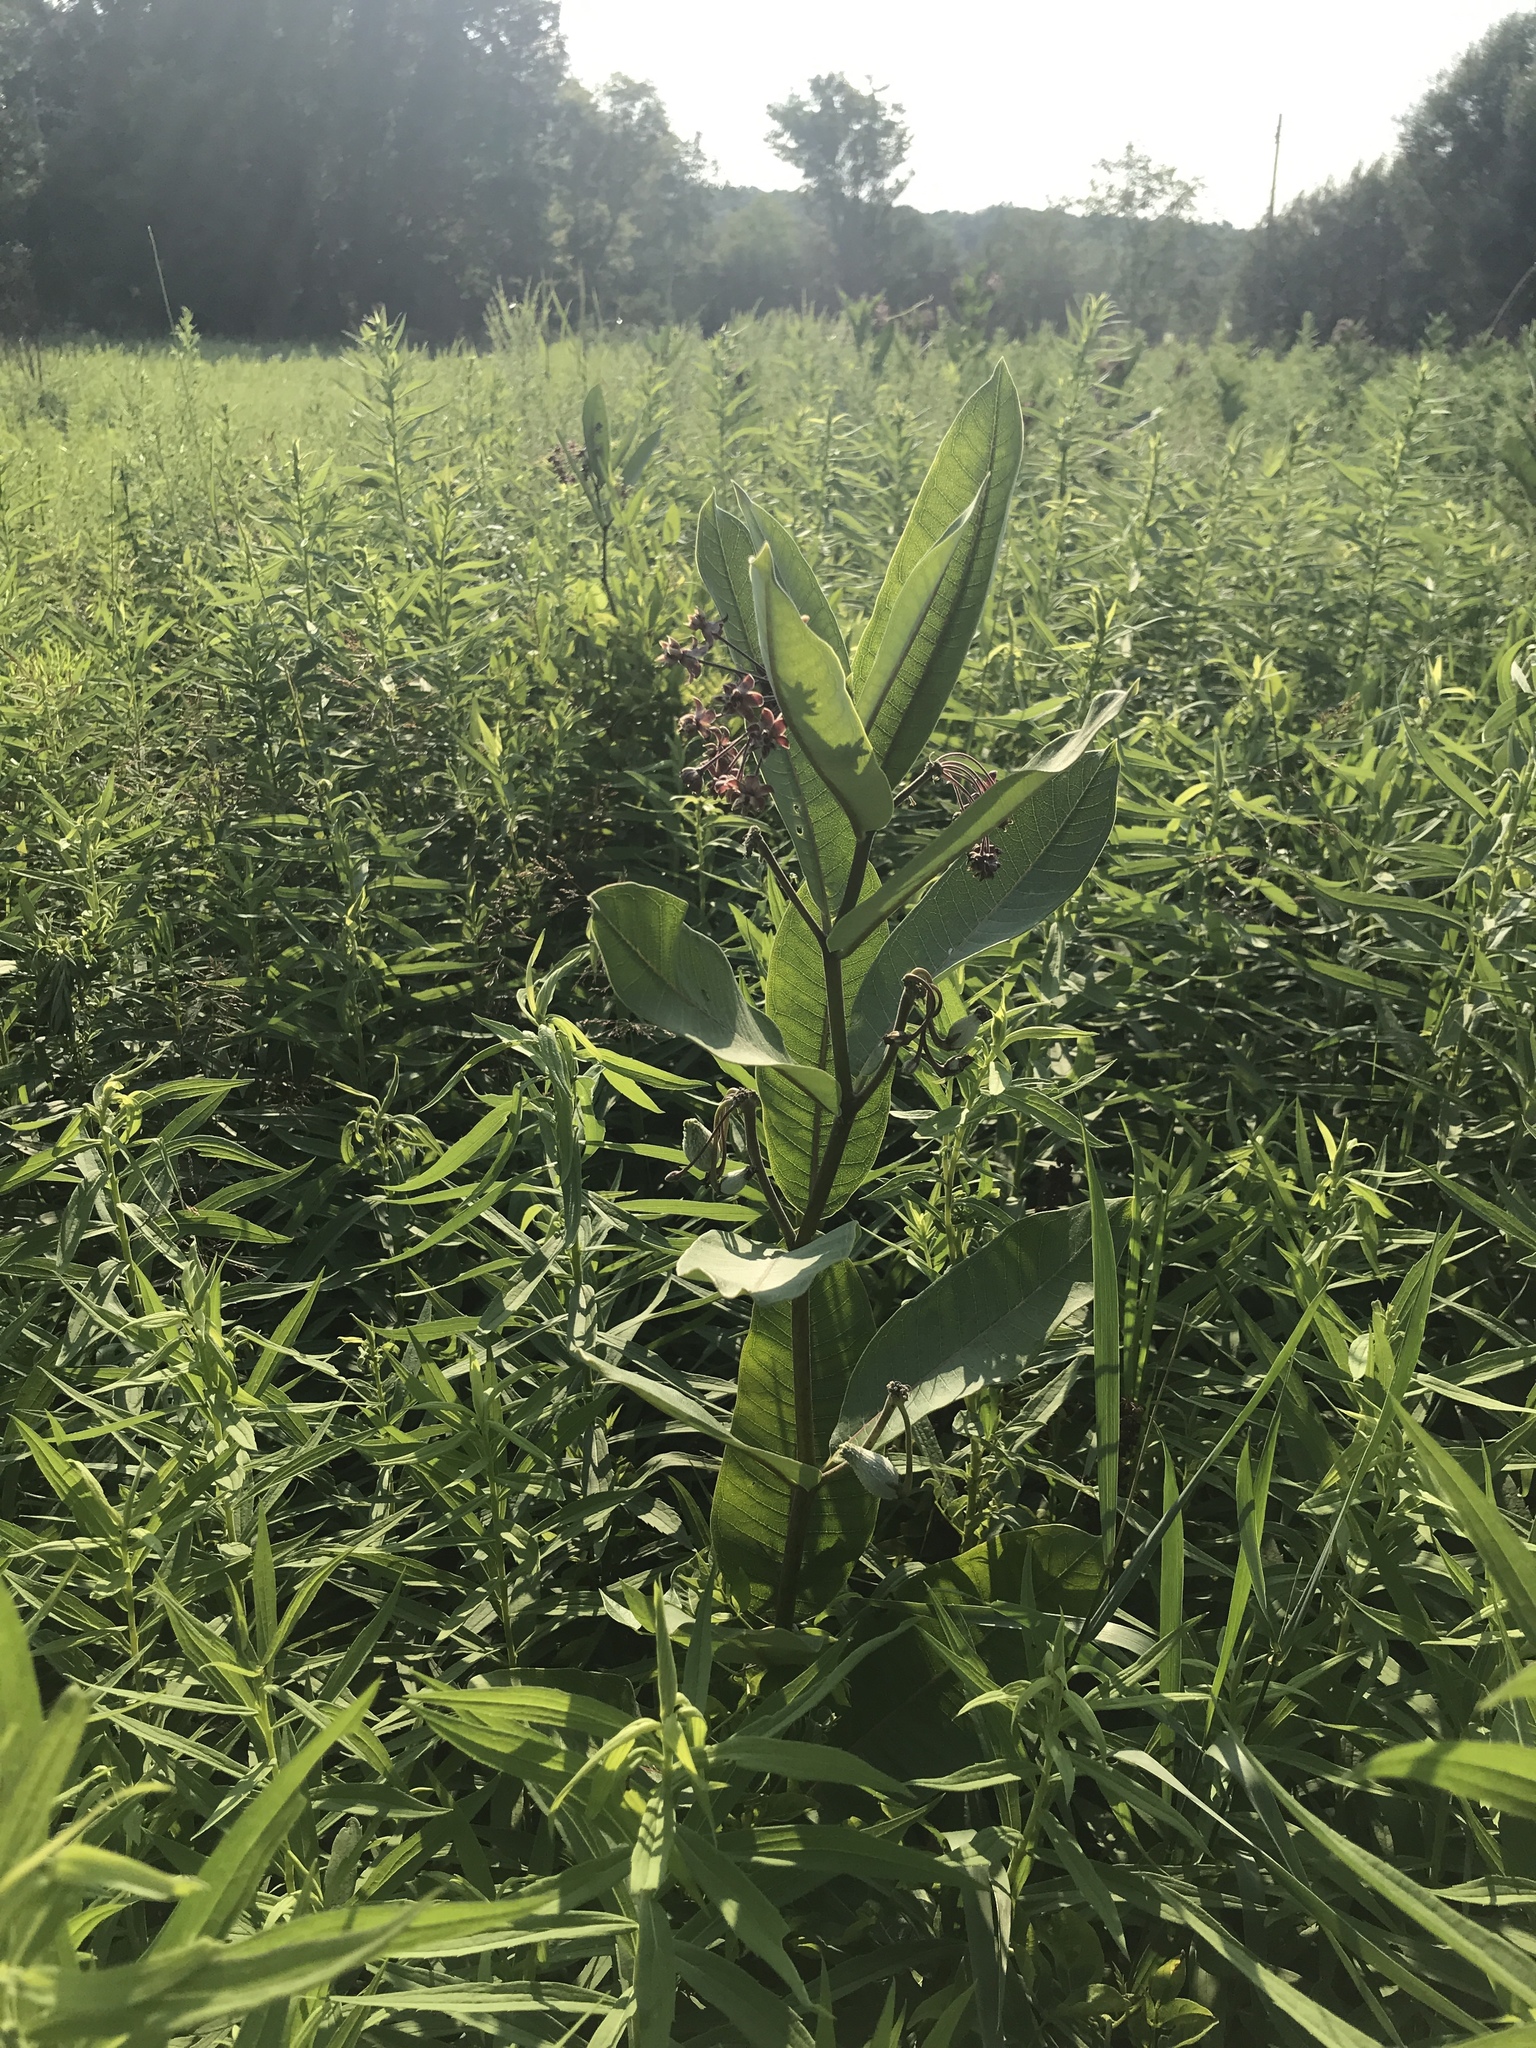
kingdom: Plantae
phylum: Tracheophyta
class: Magnoliopsida
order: Gentianales
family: Apocynaceae
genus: Asclepias
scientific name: Asclepias syriaca
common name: Common milkweed
